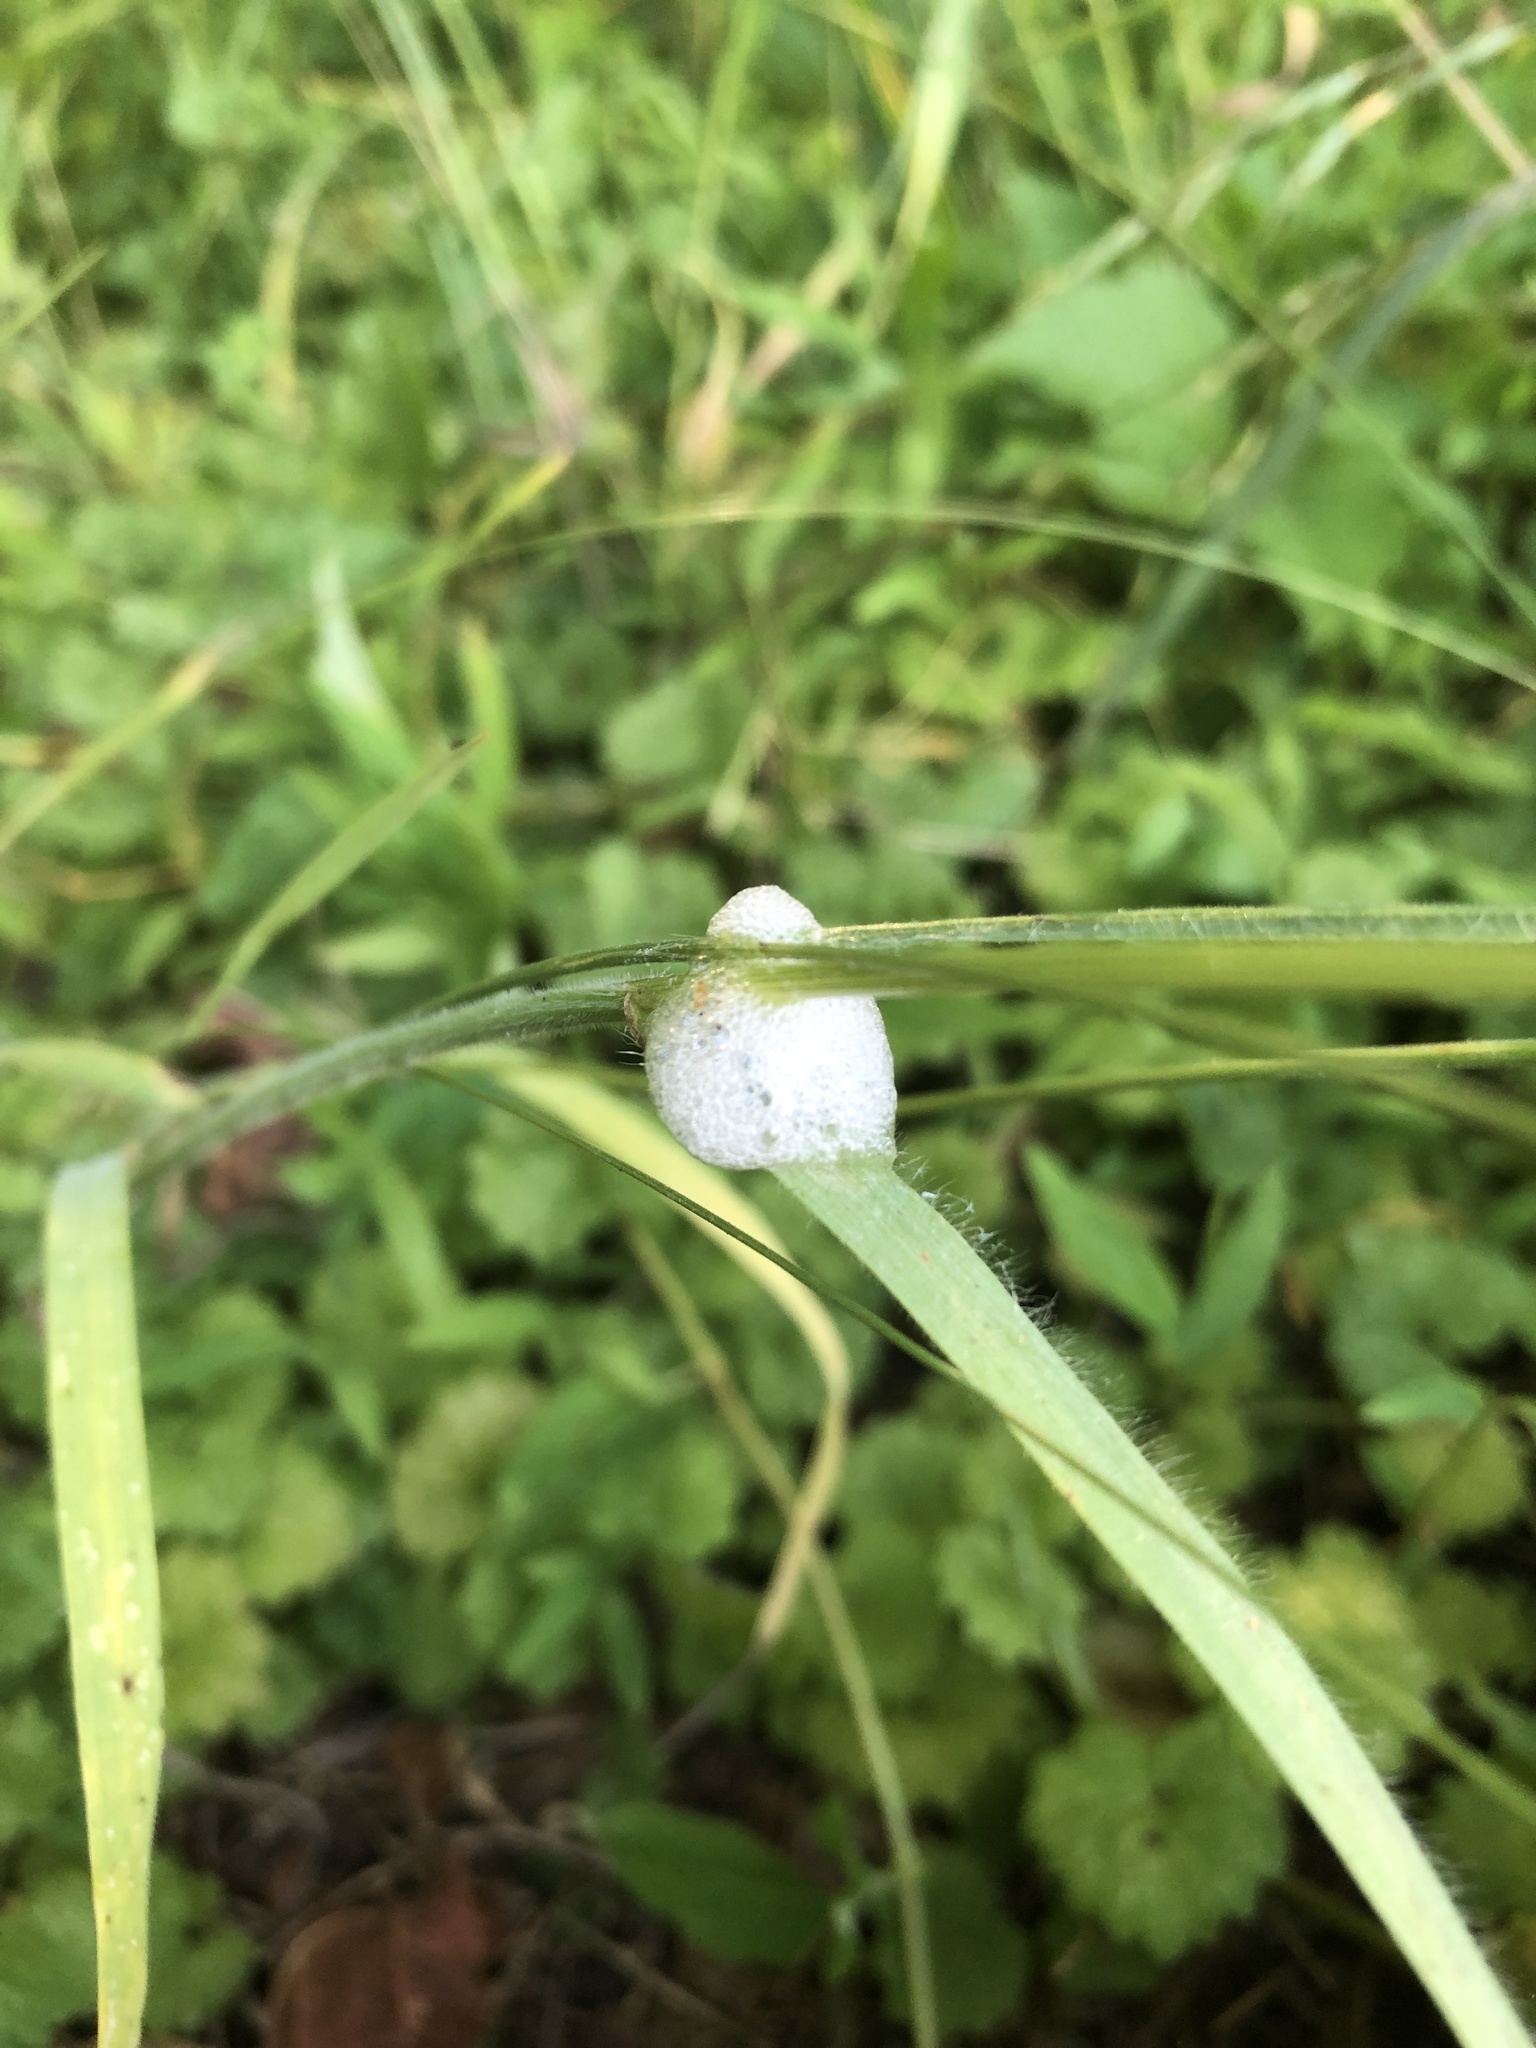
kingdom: Animalia
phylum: Arthropoda
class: Insecta
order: Hemiptera
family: Aphrophoridae
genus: Philaenus
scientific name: Philaenus spumarius
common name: Meadow spittlebug
